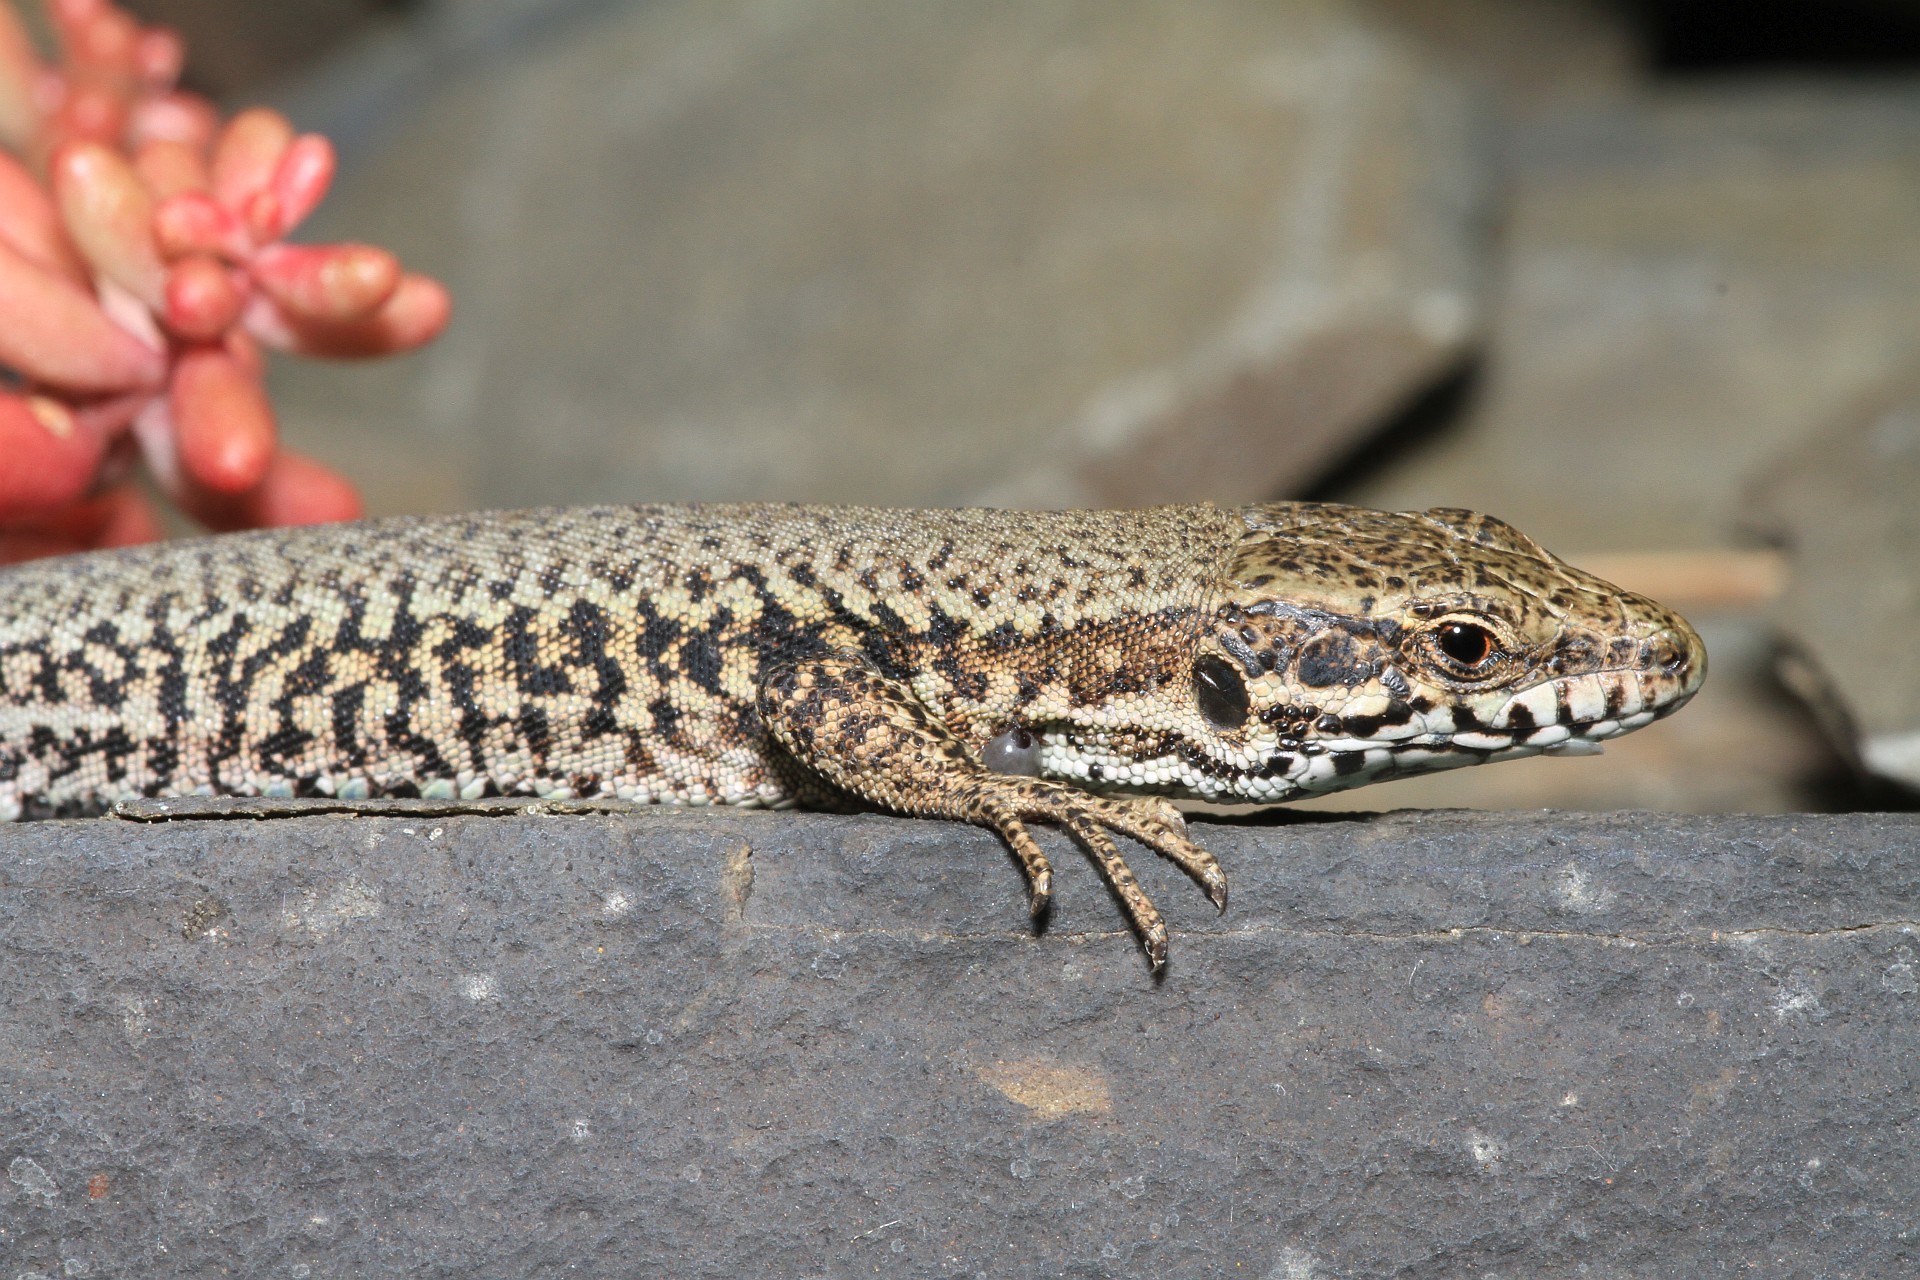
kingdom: Animalia
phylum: Chordata
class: Squamata
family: Lacertidae
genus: Podarcis
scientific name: Podarcis muralis
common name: Common wall lizard
